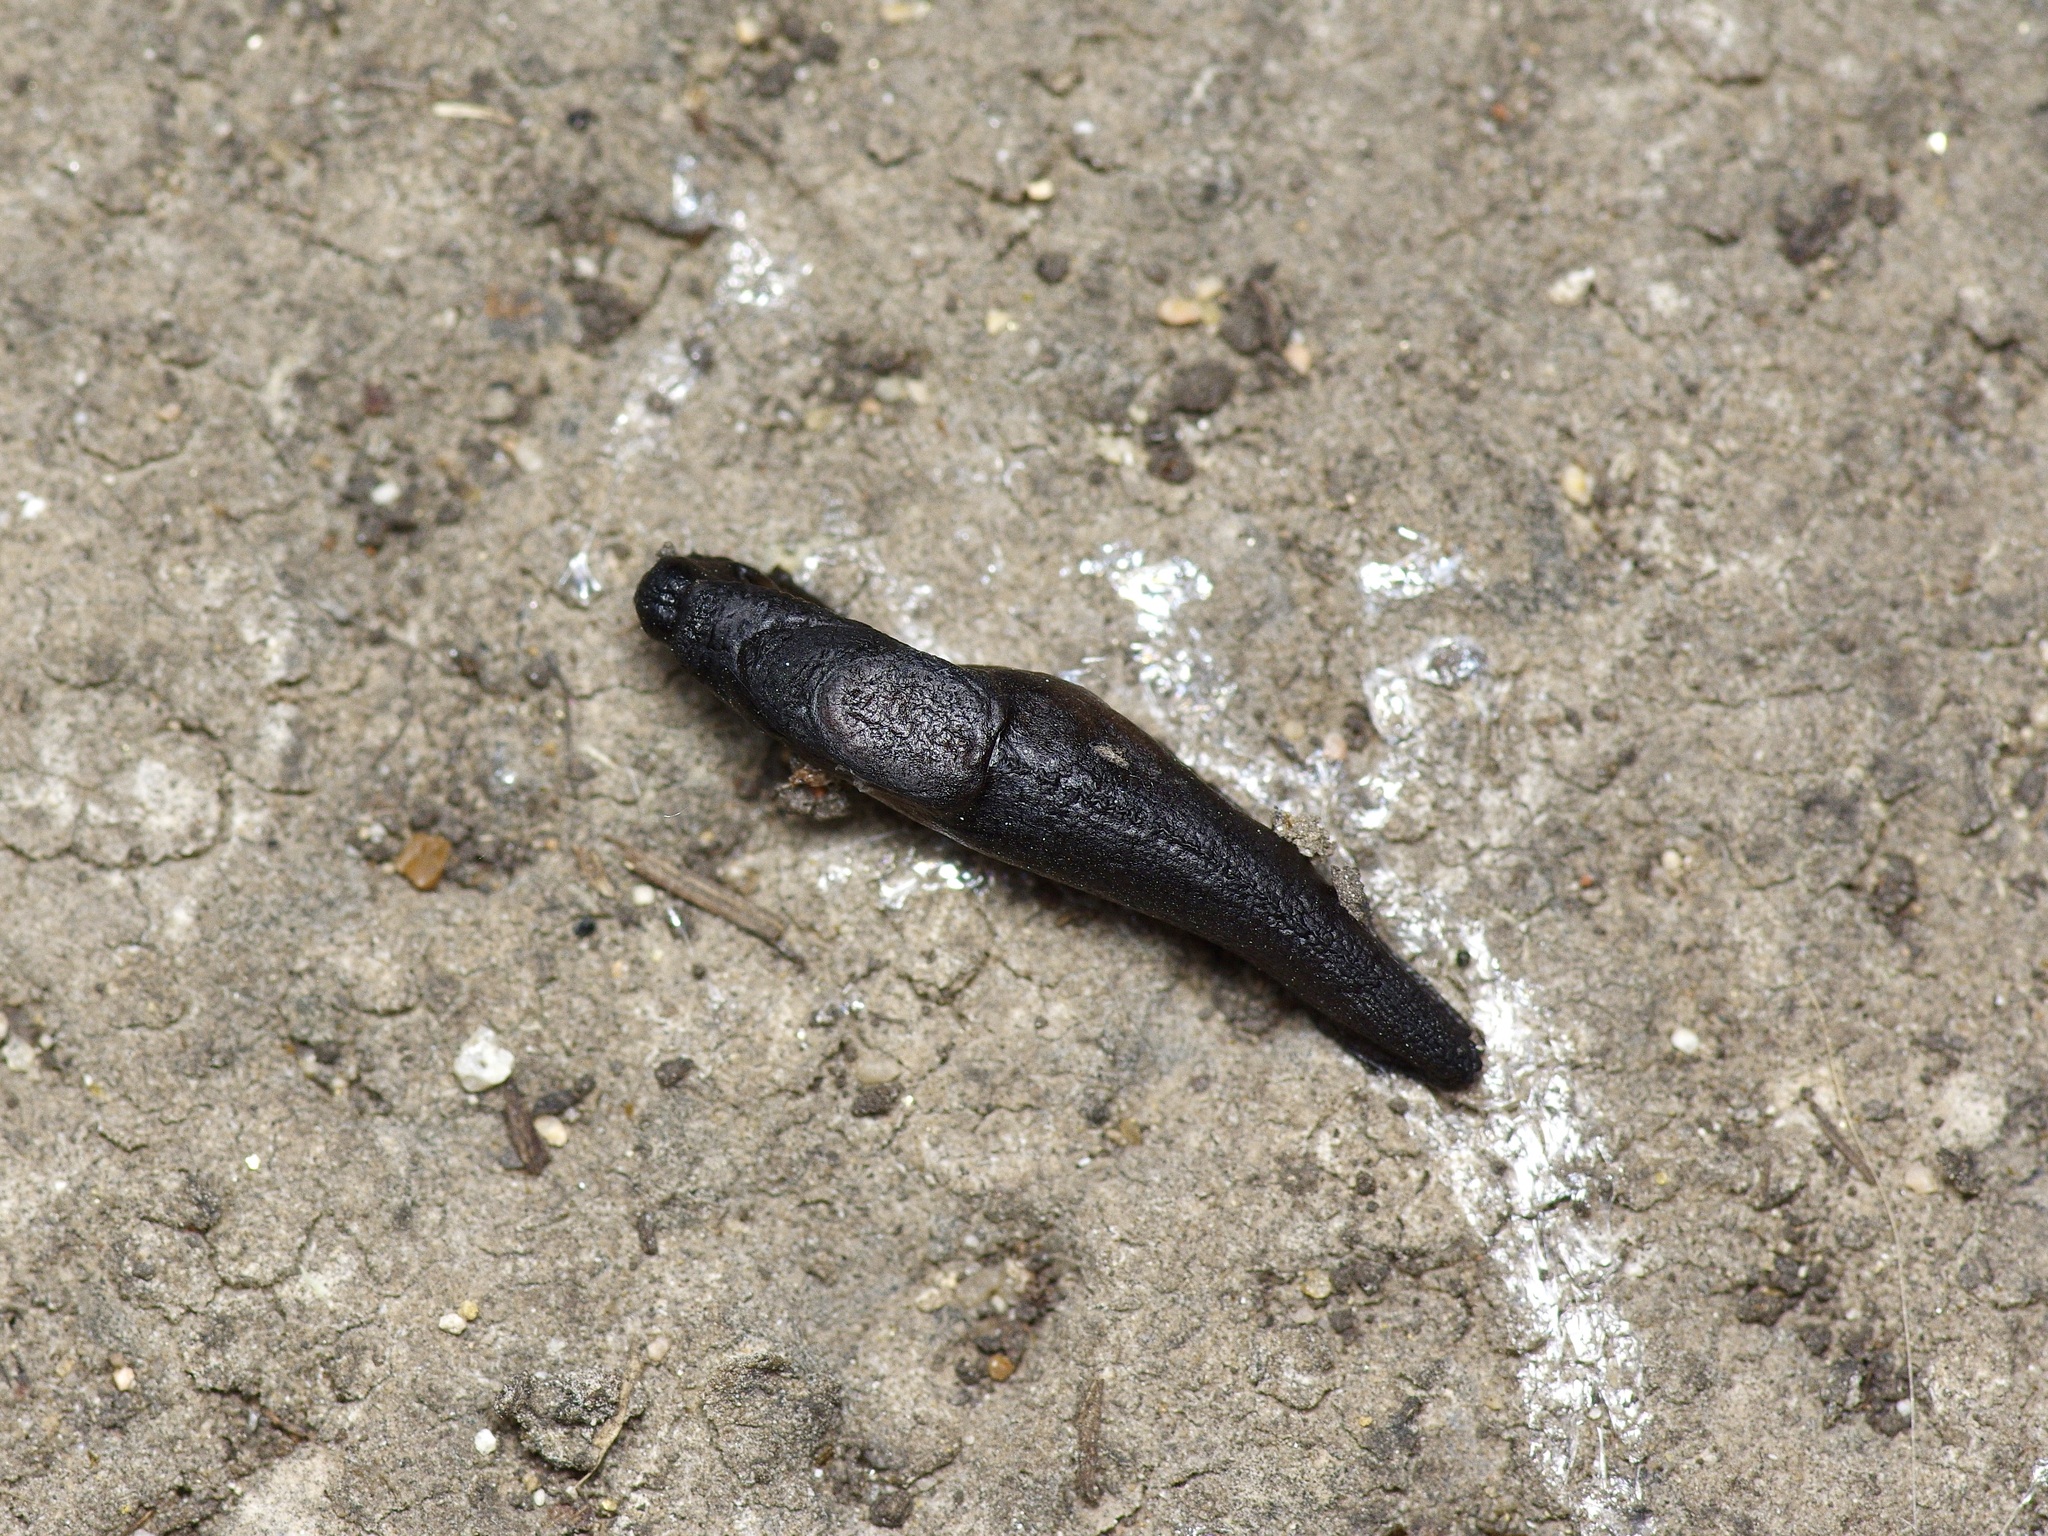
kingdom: Animalia
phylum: Mollusca
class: Gastropoda
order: Stylommatophora
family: Milacidae
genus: Milax
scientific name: Milax gagates
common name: Greenhouse slug
